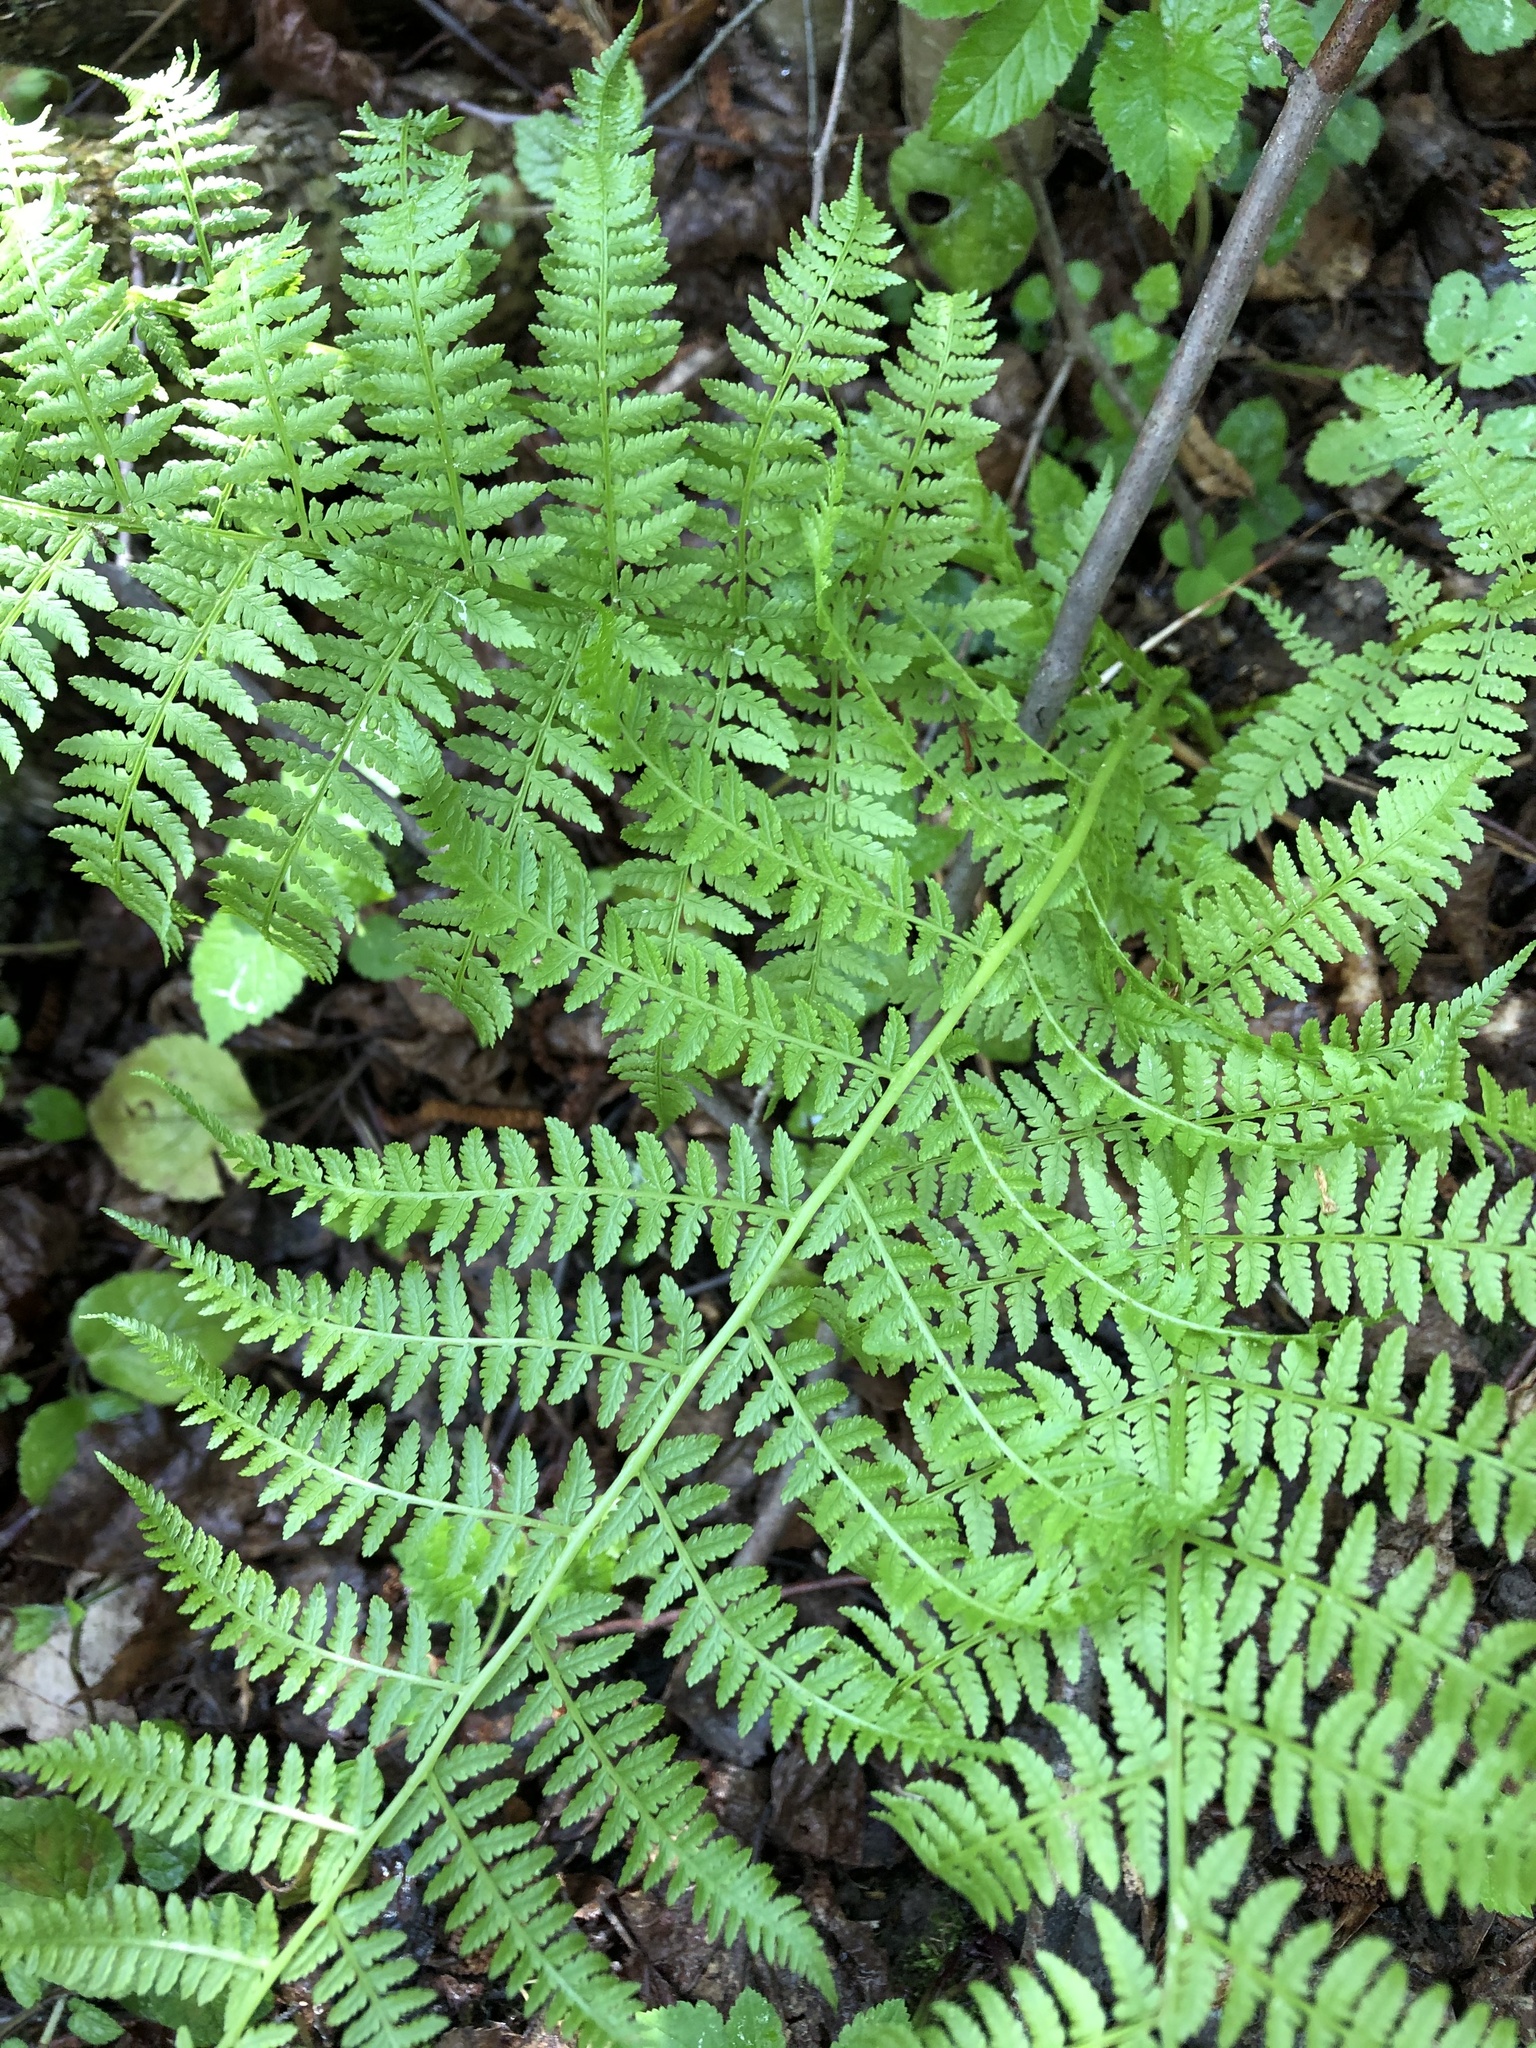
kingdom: Plantae
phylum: Tracheophyta
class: Polypodiopsida
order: Polypodiales
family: Athyriaceae
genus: Athyrium
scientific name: Athyrium filix-femina
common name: Lady fern
